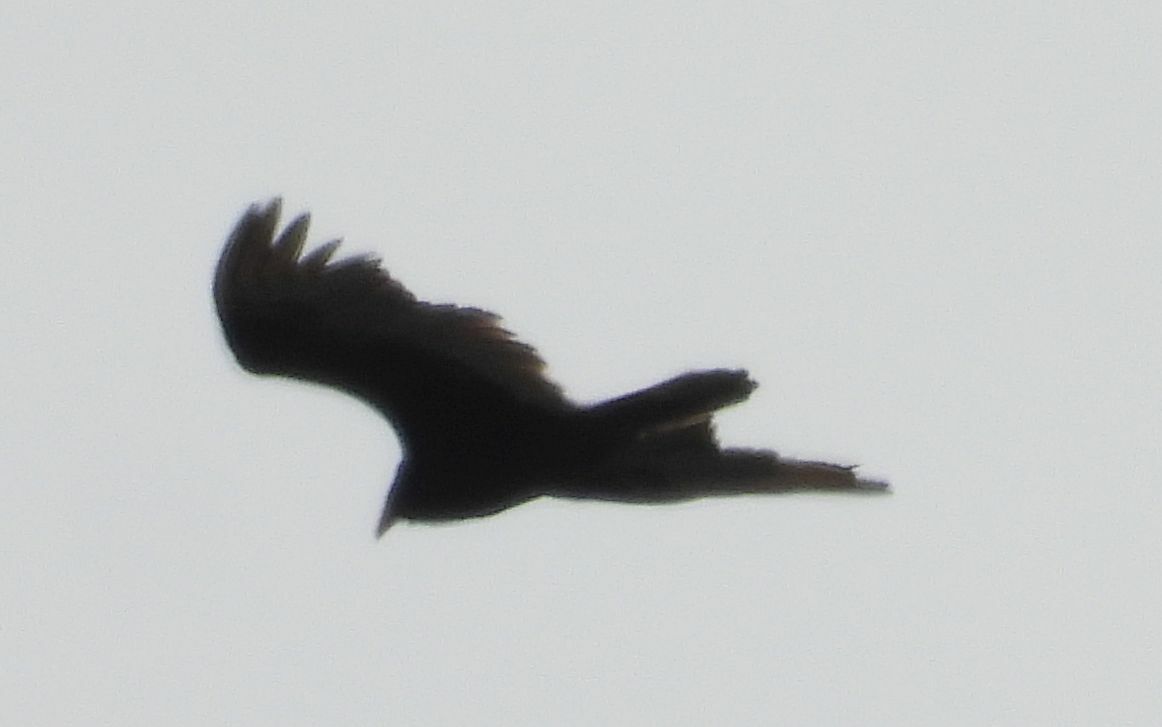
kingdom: Animalia
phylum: Chordata
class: Aves
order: Accipitriformes
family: Cathartidae
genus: Cathartes
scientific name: Cathartes aura
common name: Turkey vulture
